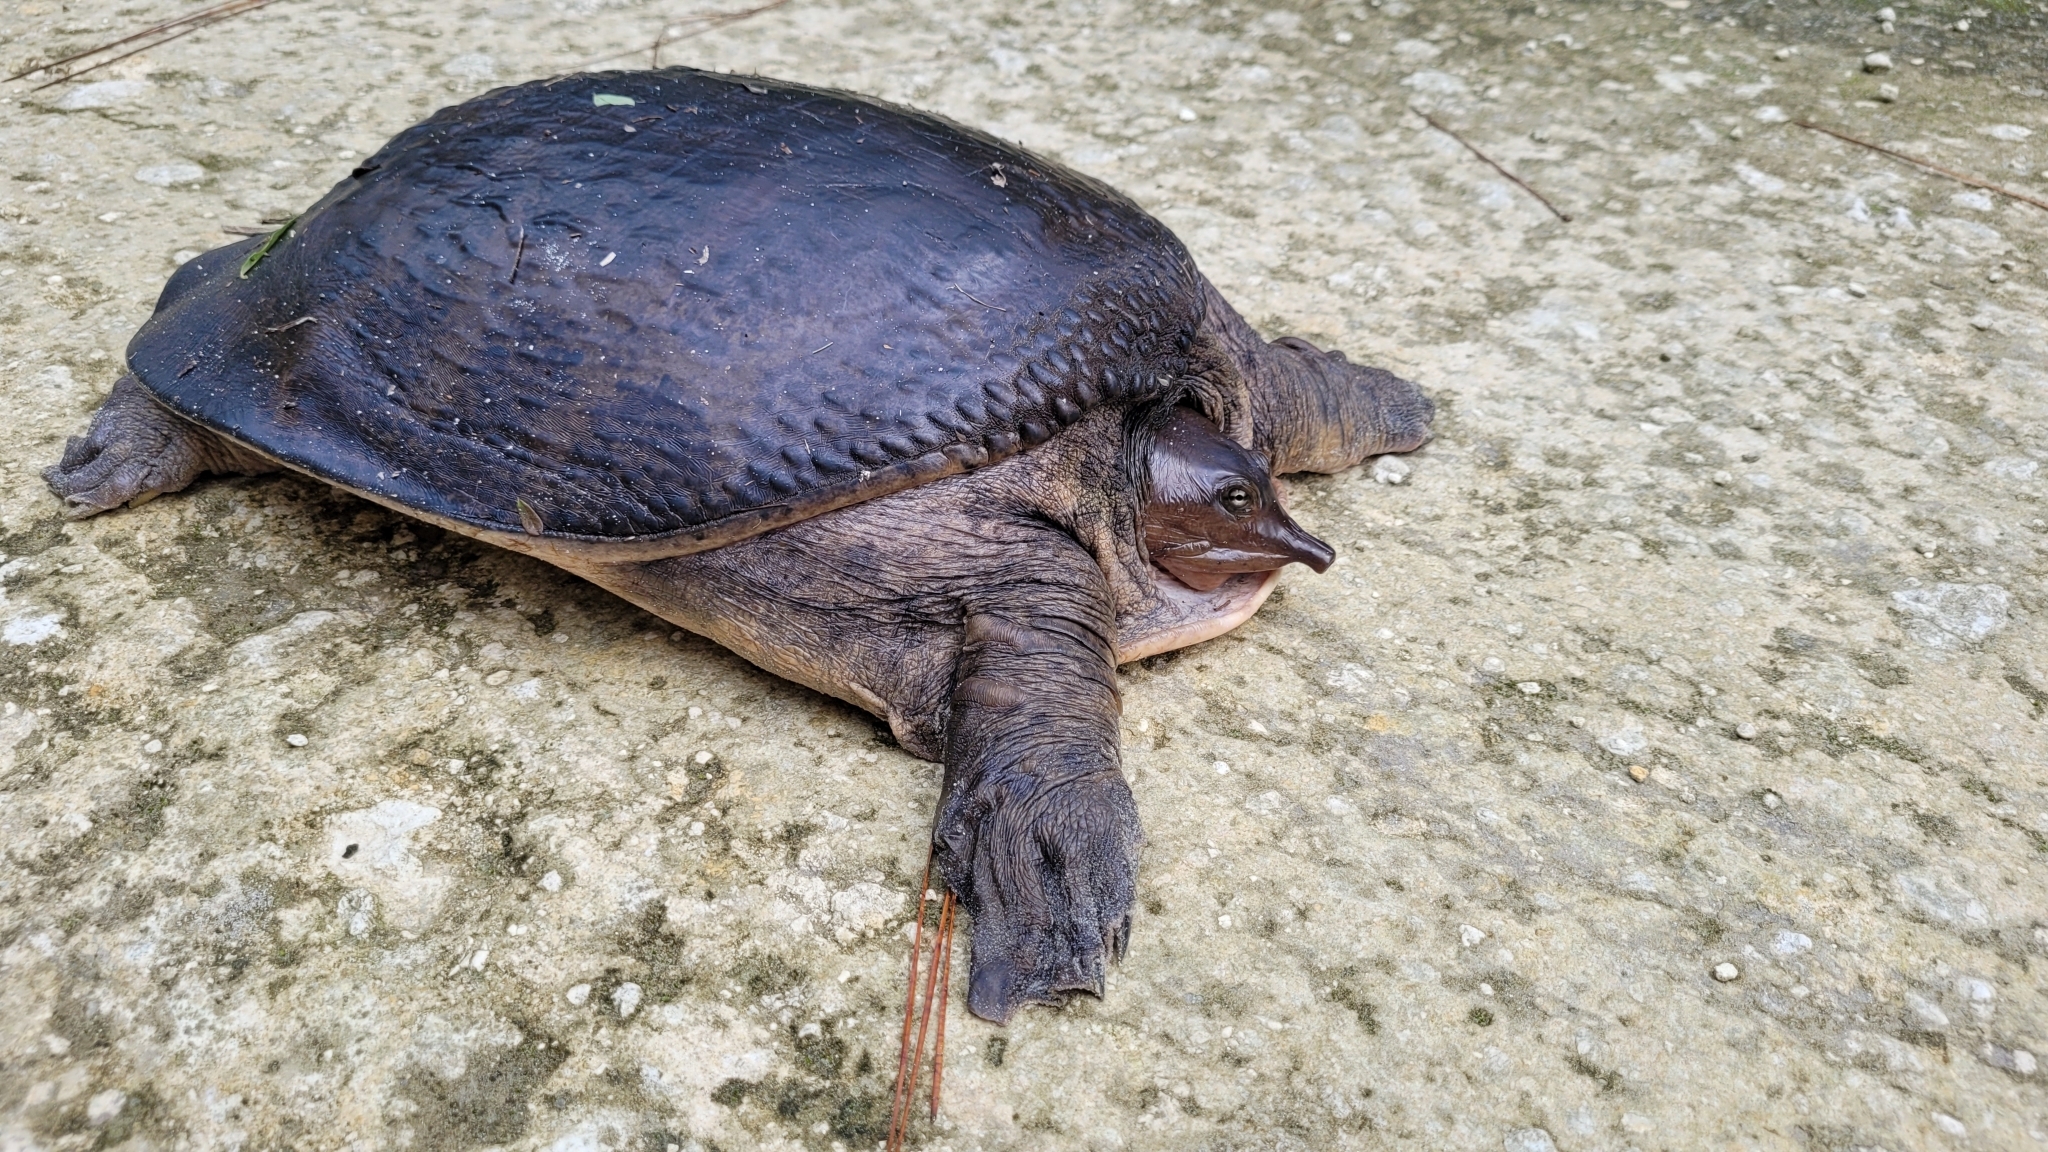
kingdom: Animalia
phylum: Chordata
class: Testudines
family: Trionychidae
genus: Apalone
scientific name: Apalone ferox
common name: Florida softshell turtle
